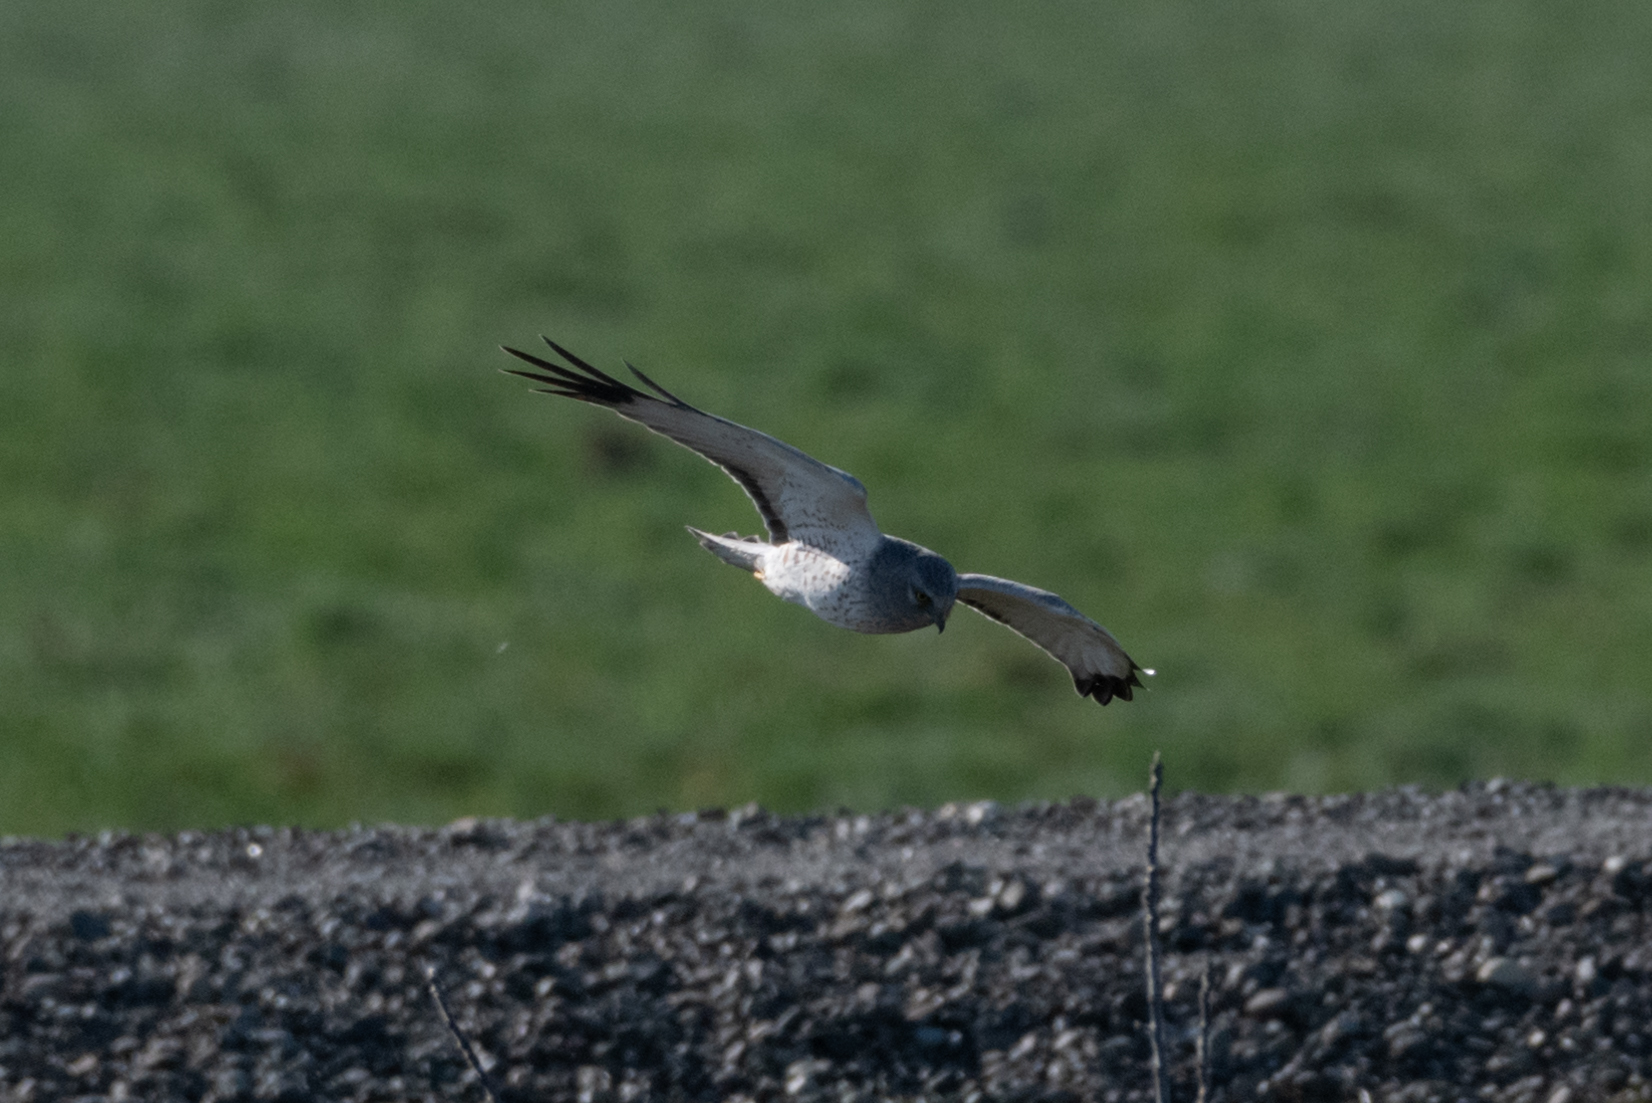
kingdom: Animalia
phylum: Chordata
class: Aves
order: Accipitriformes
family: Accipitridae
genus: Circus
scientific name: Circus cyaneus
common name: Hen harrier
